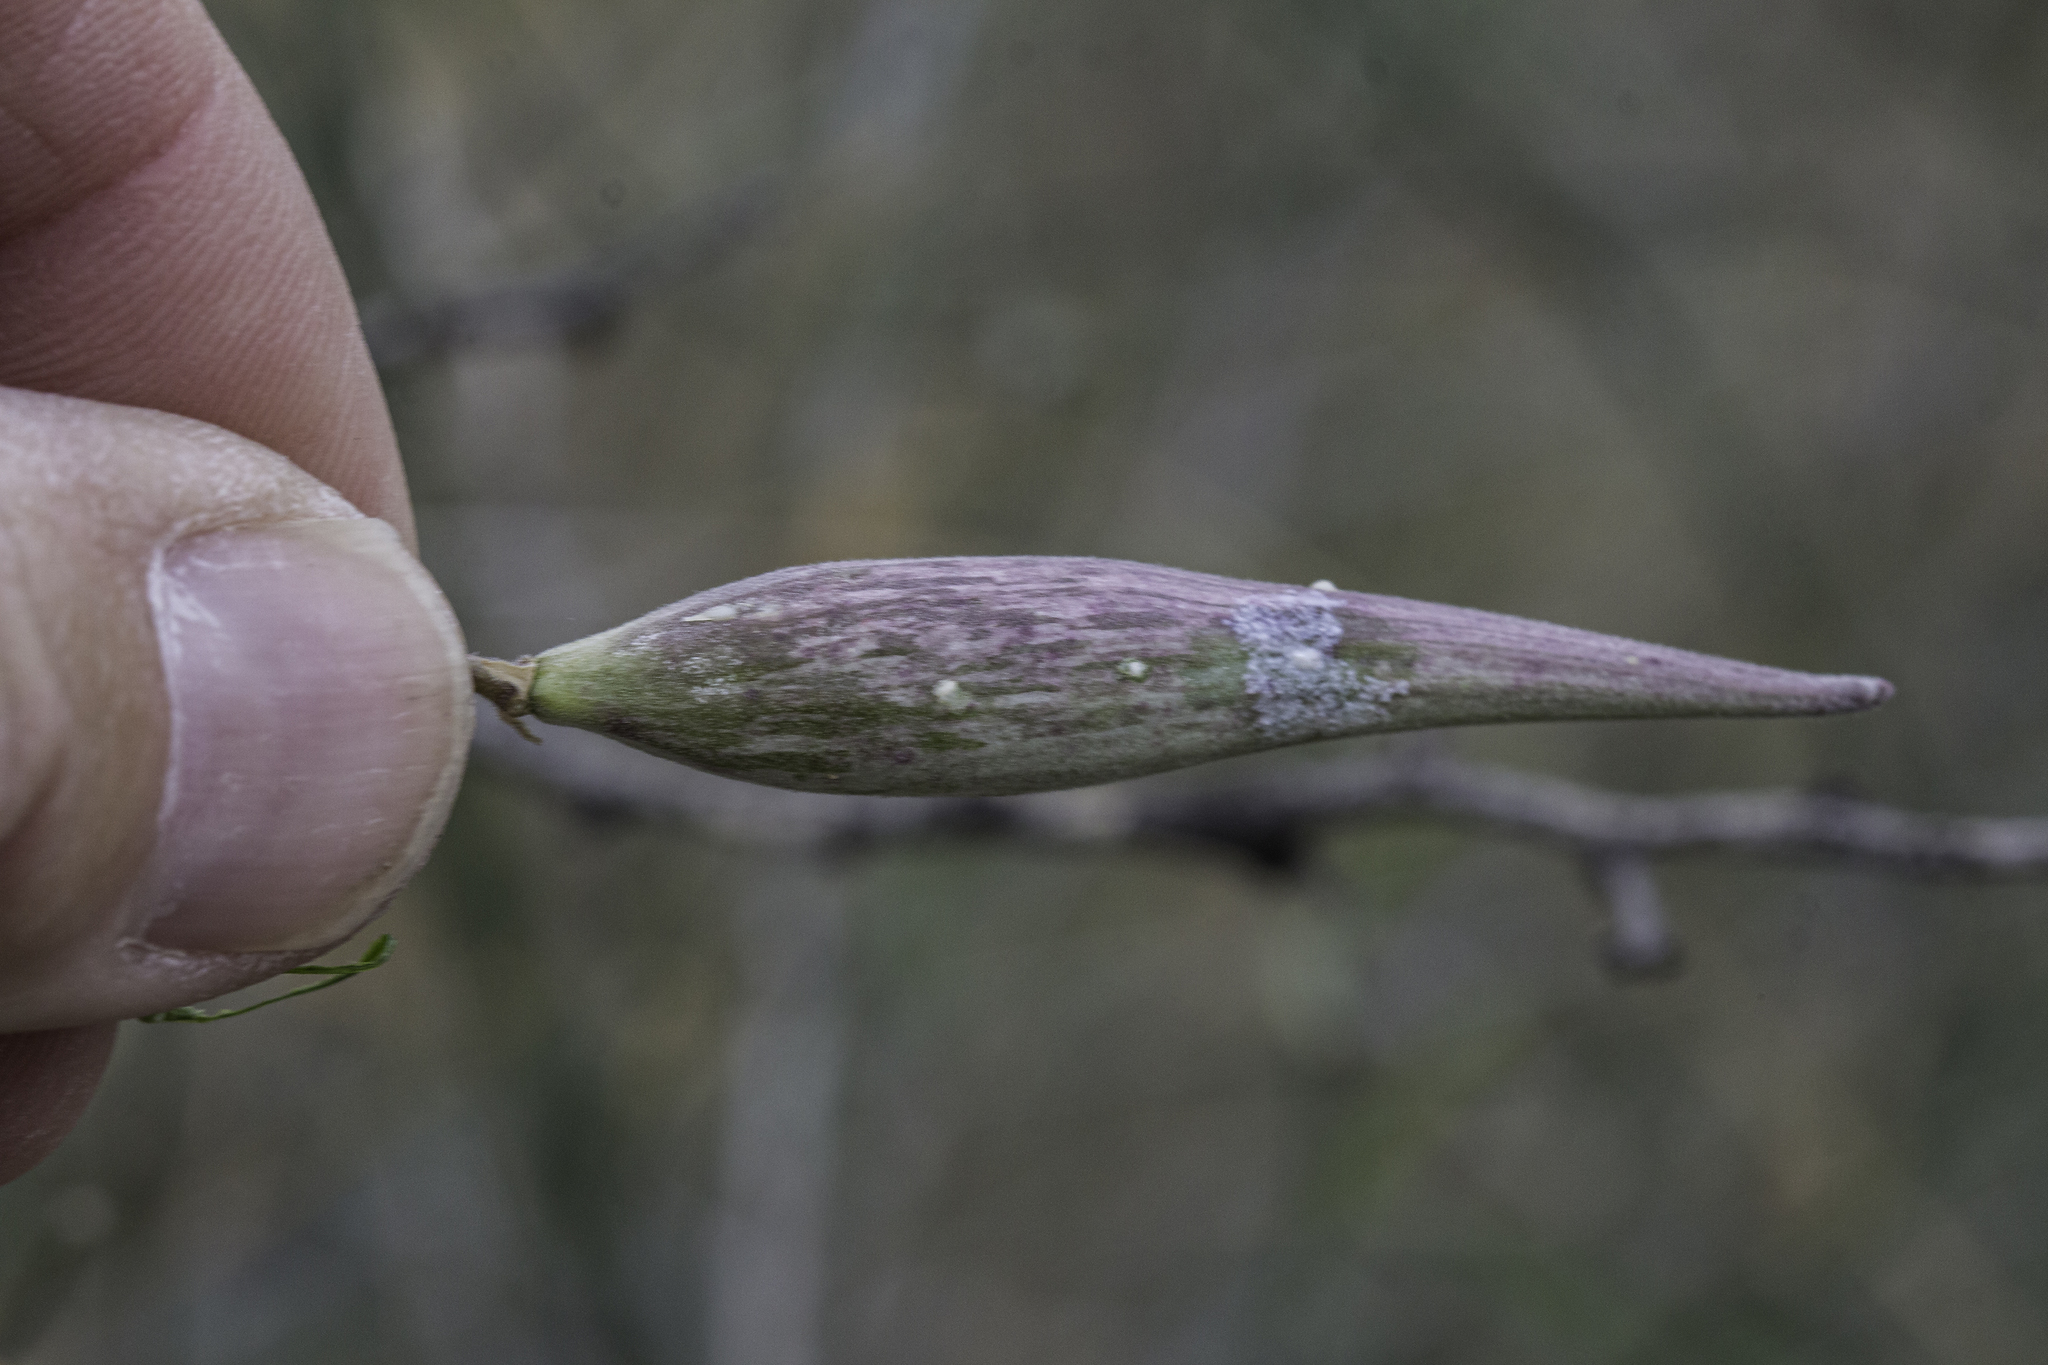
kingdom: Plantae
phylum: Tracheophyta
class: Magnoliopsida
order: Gentianales
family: Apocynaceae
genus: Funastrum
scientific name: Funastrum heterophyllum
